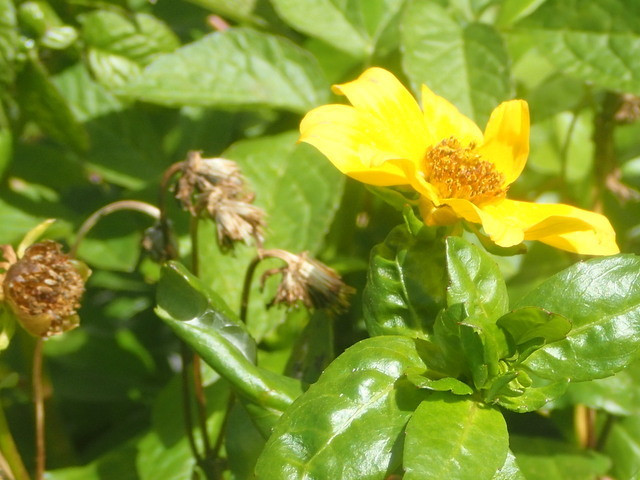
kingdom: Plantae
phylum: Tracheophyta
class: Magnoliopsida
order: Asterales
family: Asteraceae
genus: Sphagneticola
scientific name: Sphagneticola trilobata
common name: Bay biscayne creeping-oxeye
